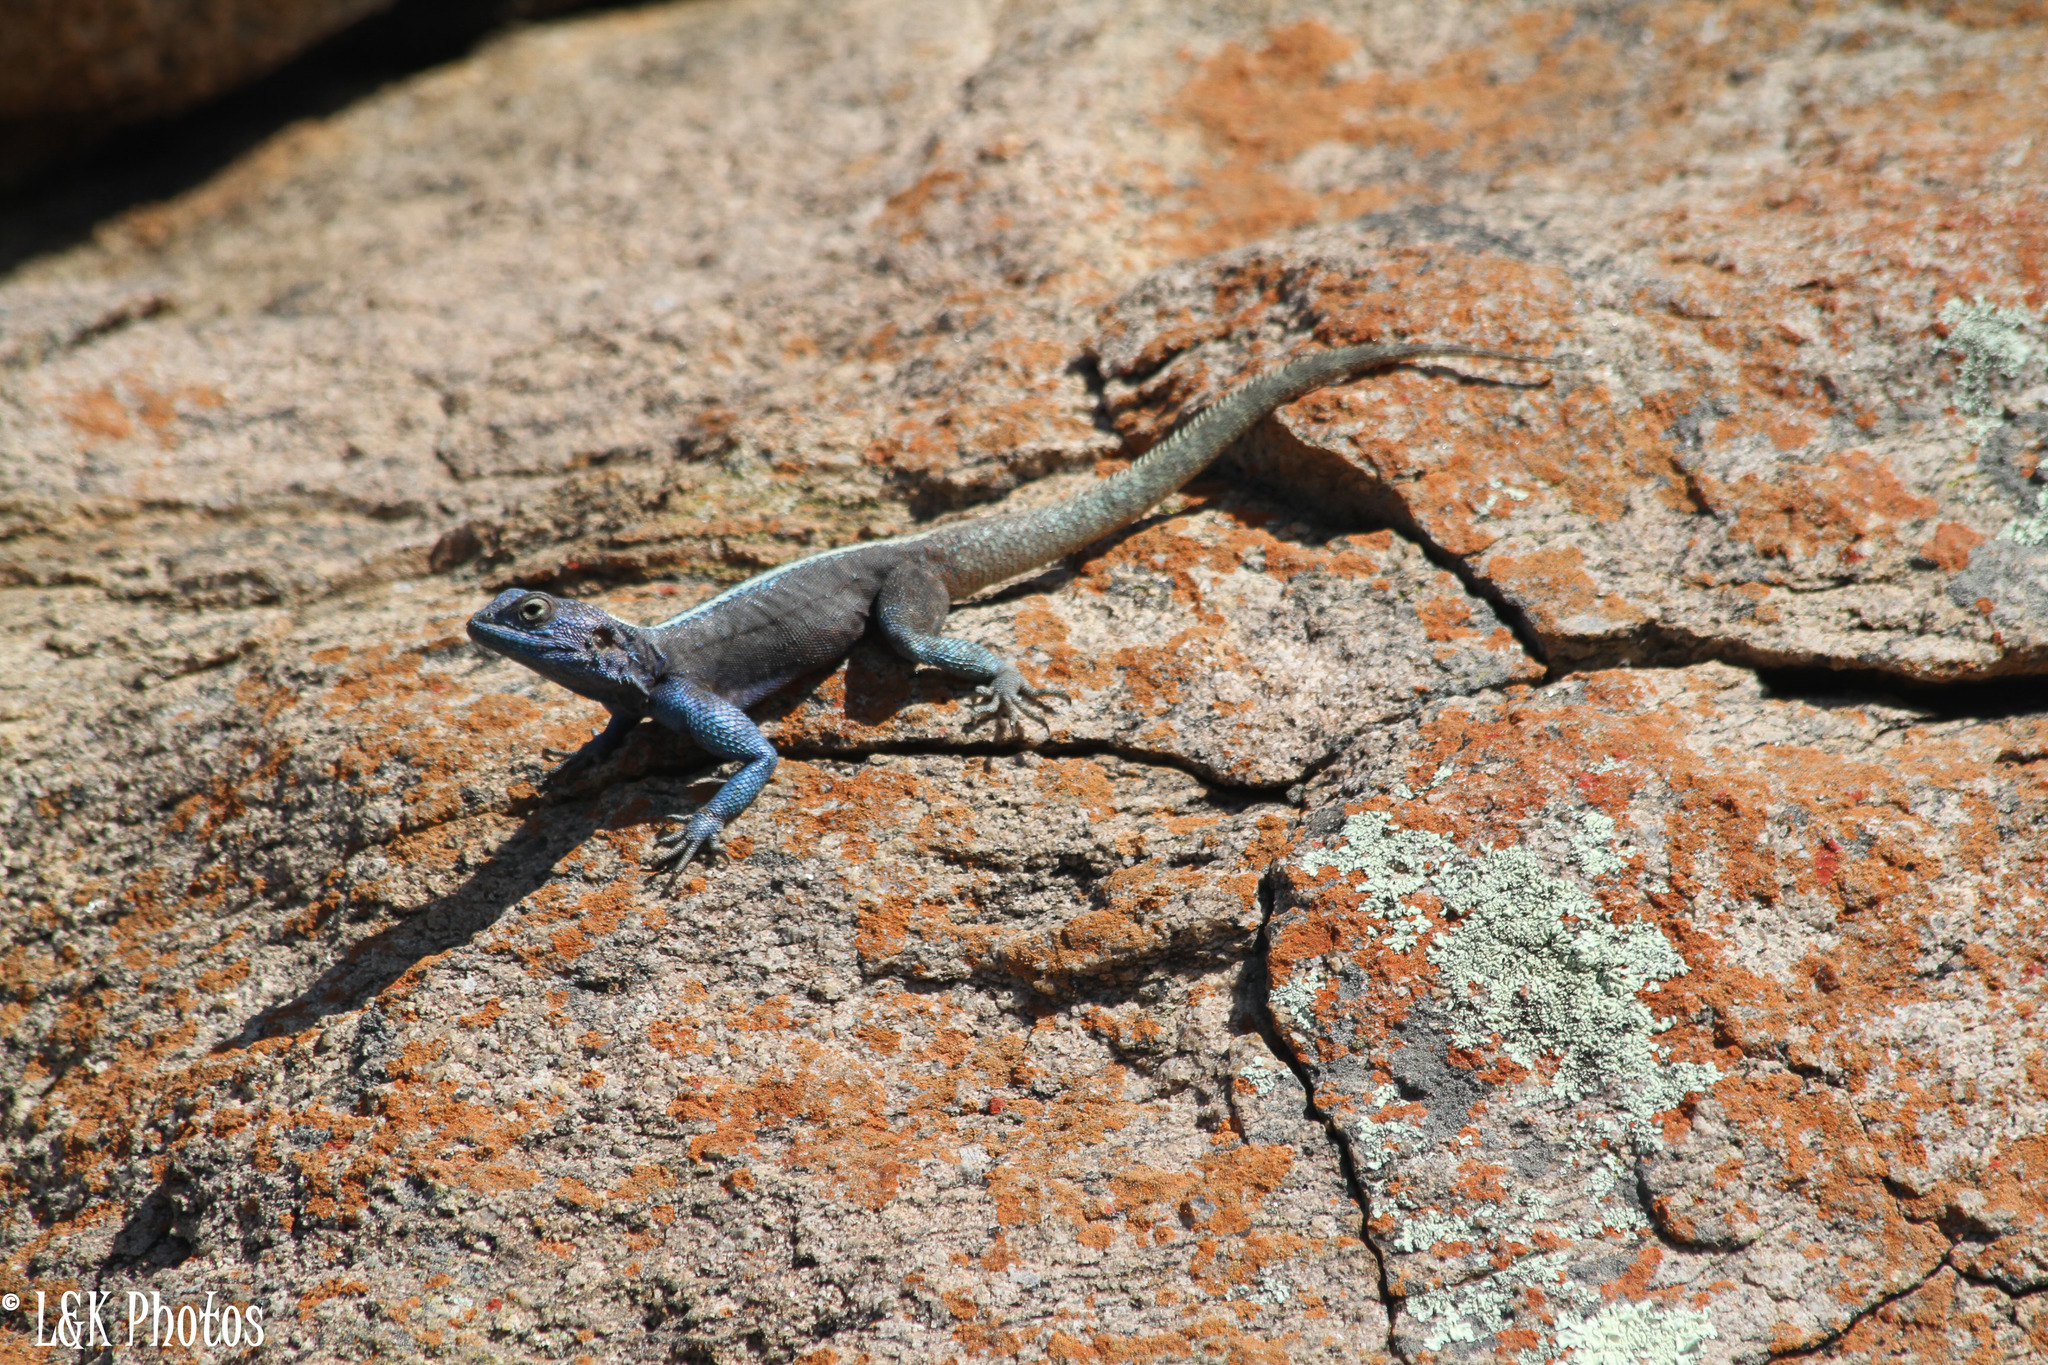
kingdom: Animalia
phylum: Chordata
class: Squamata
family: Agamidae
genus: Agama
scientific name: Agama atra
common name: Southern african rock agama
